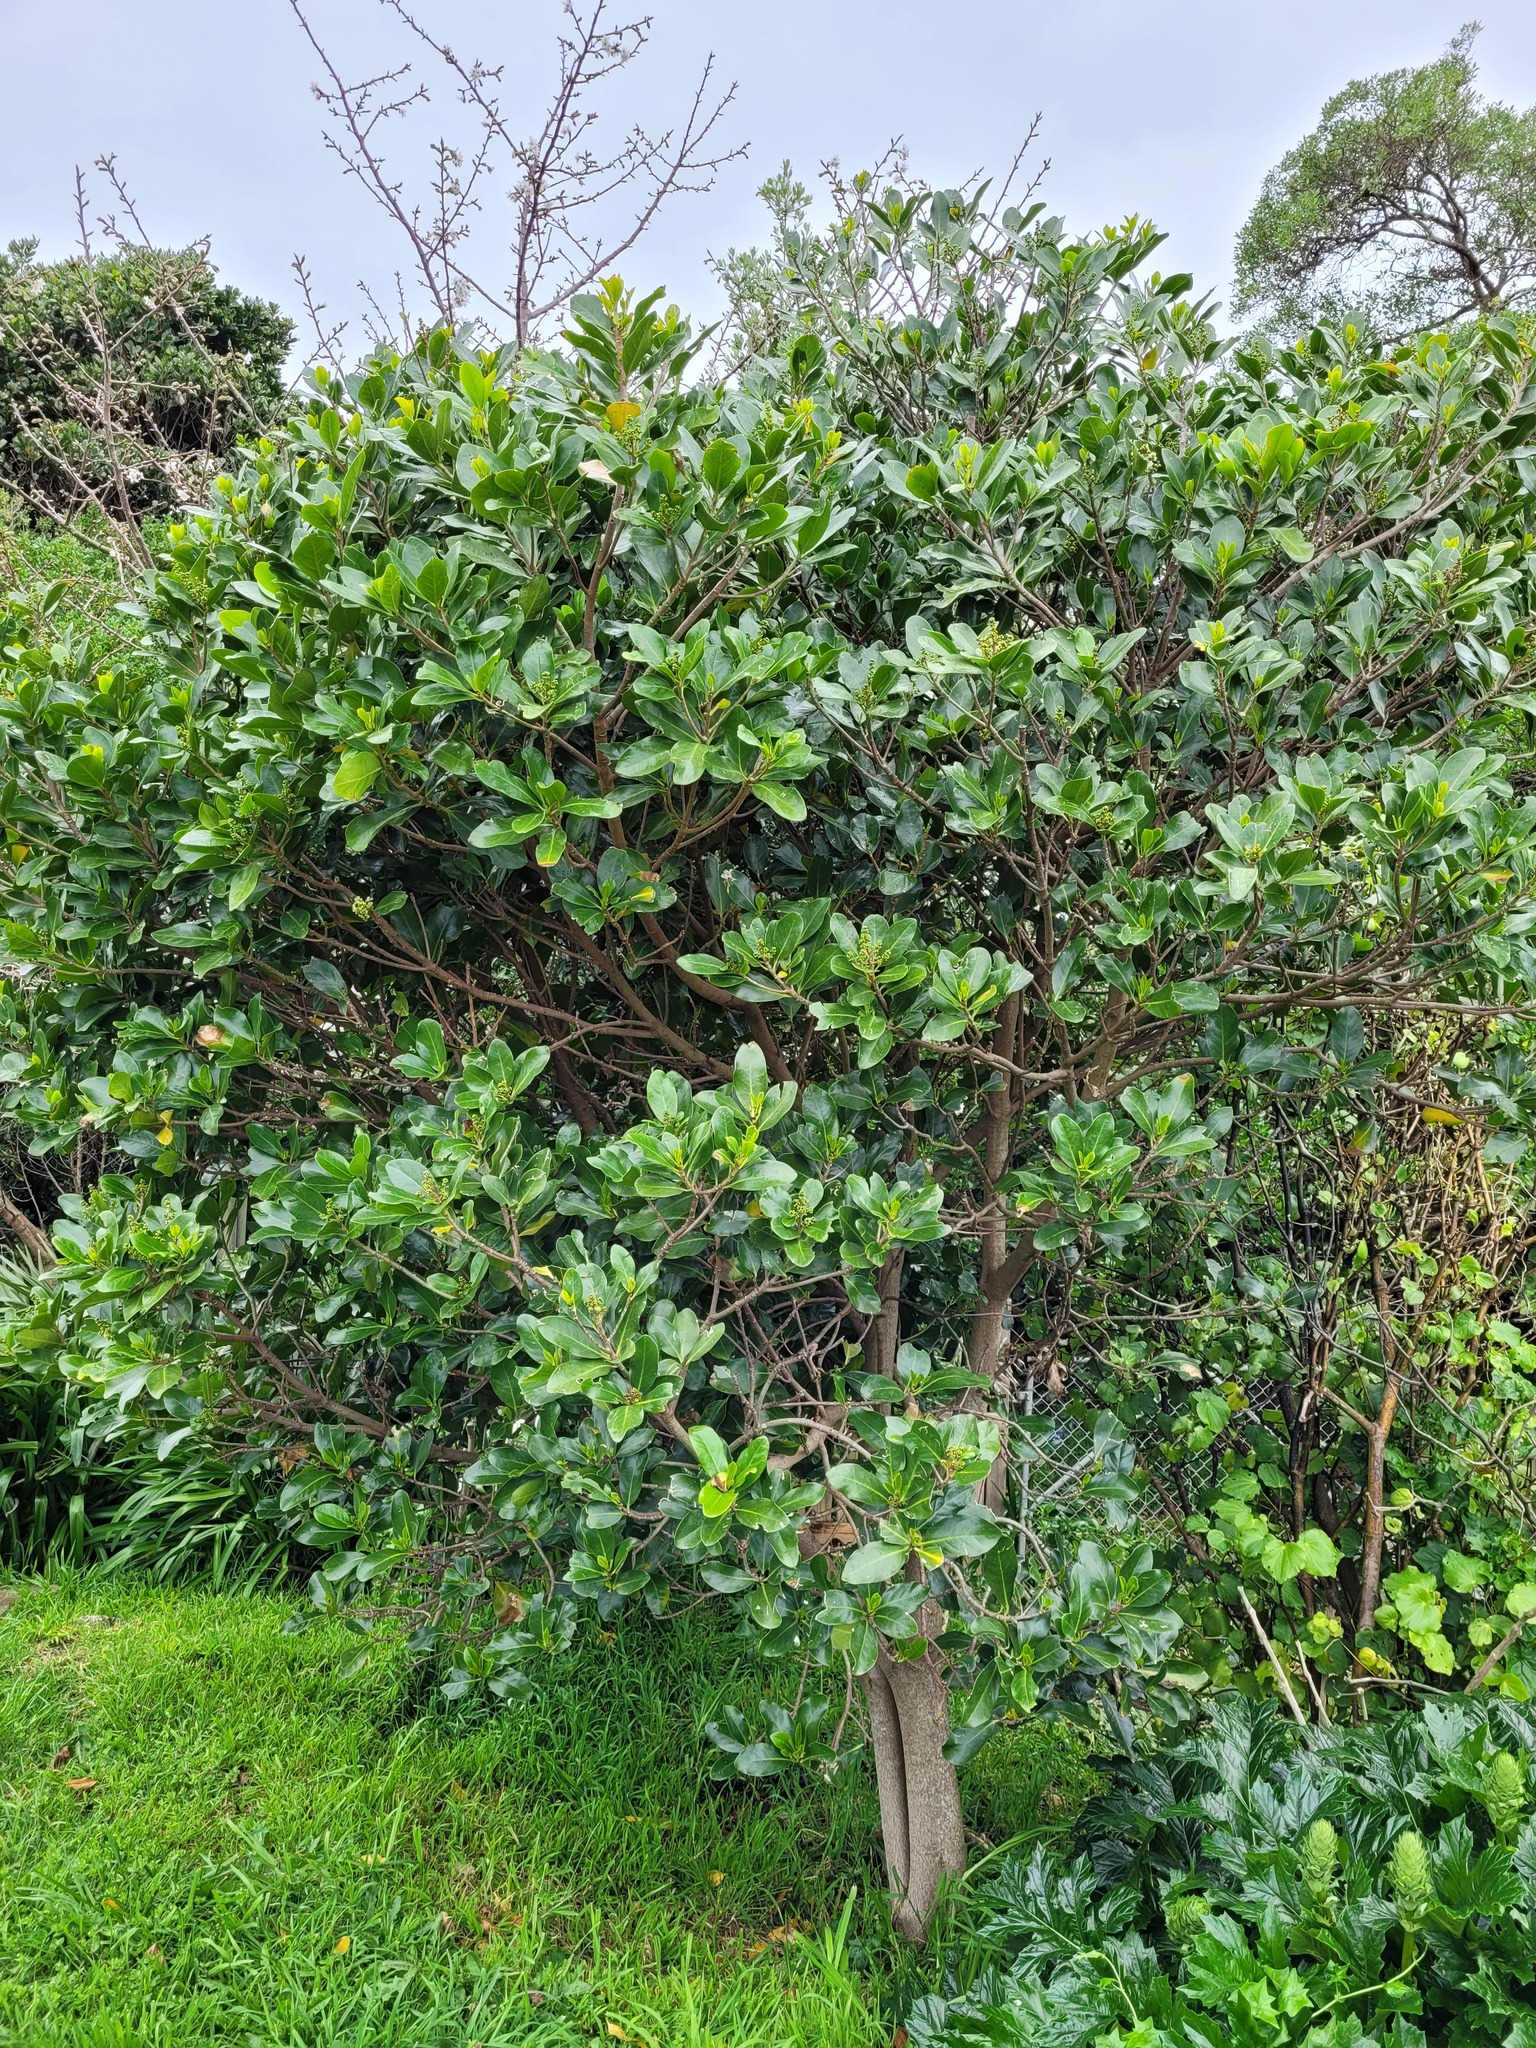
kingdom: Plantae
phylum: Tracheophyta
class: Magnoliopsida
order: Cucurbitales
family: Corynocarpaceae
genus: Corynocarpus
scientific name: Corynocarpus laevigatus
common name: New zealand laurel
